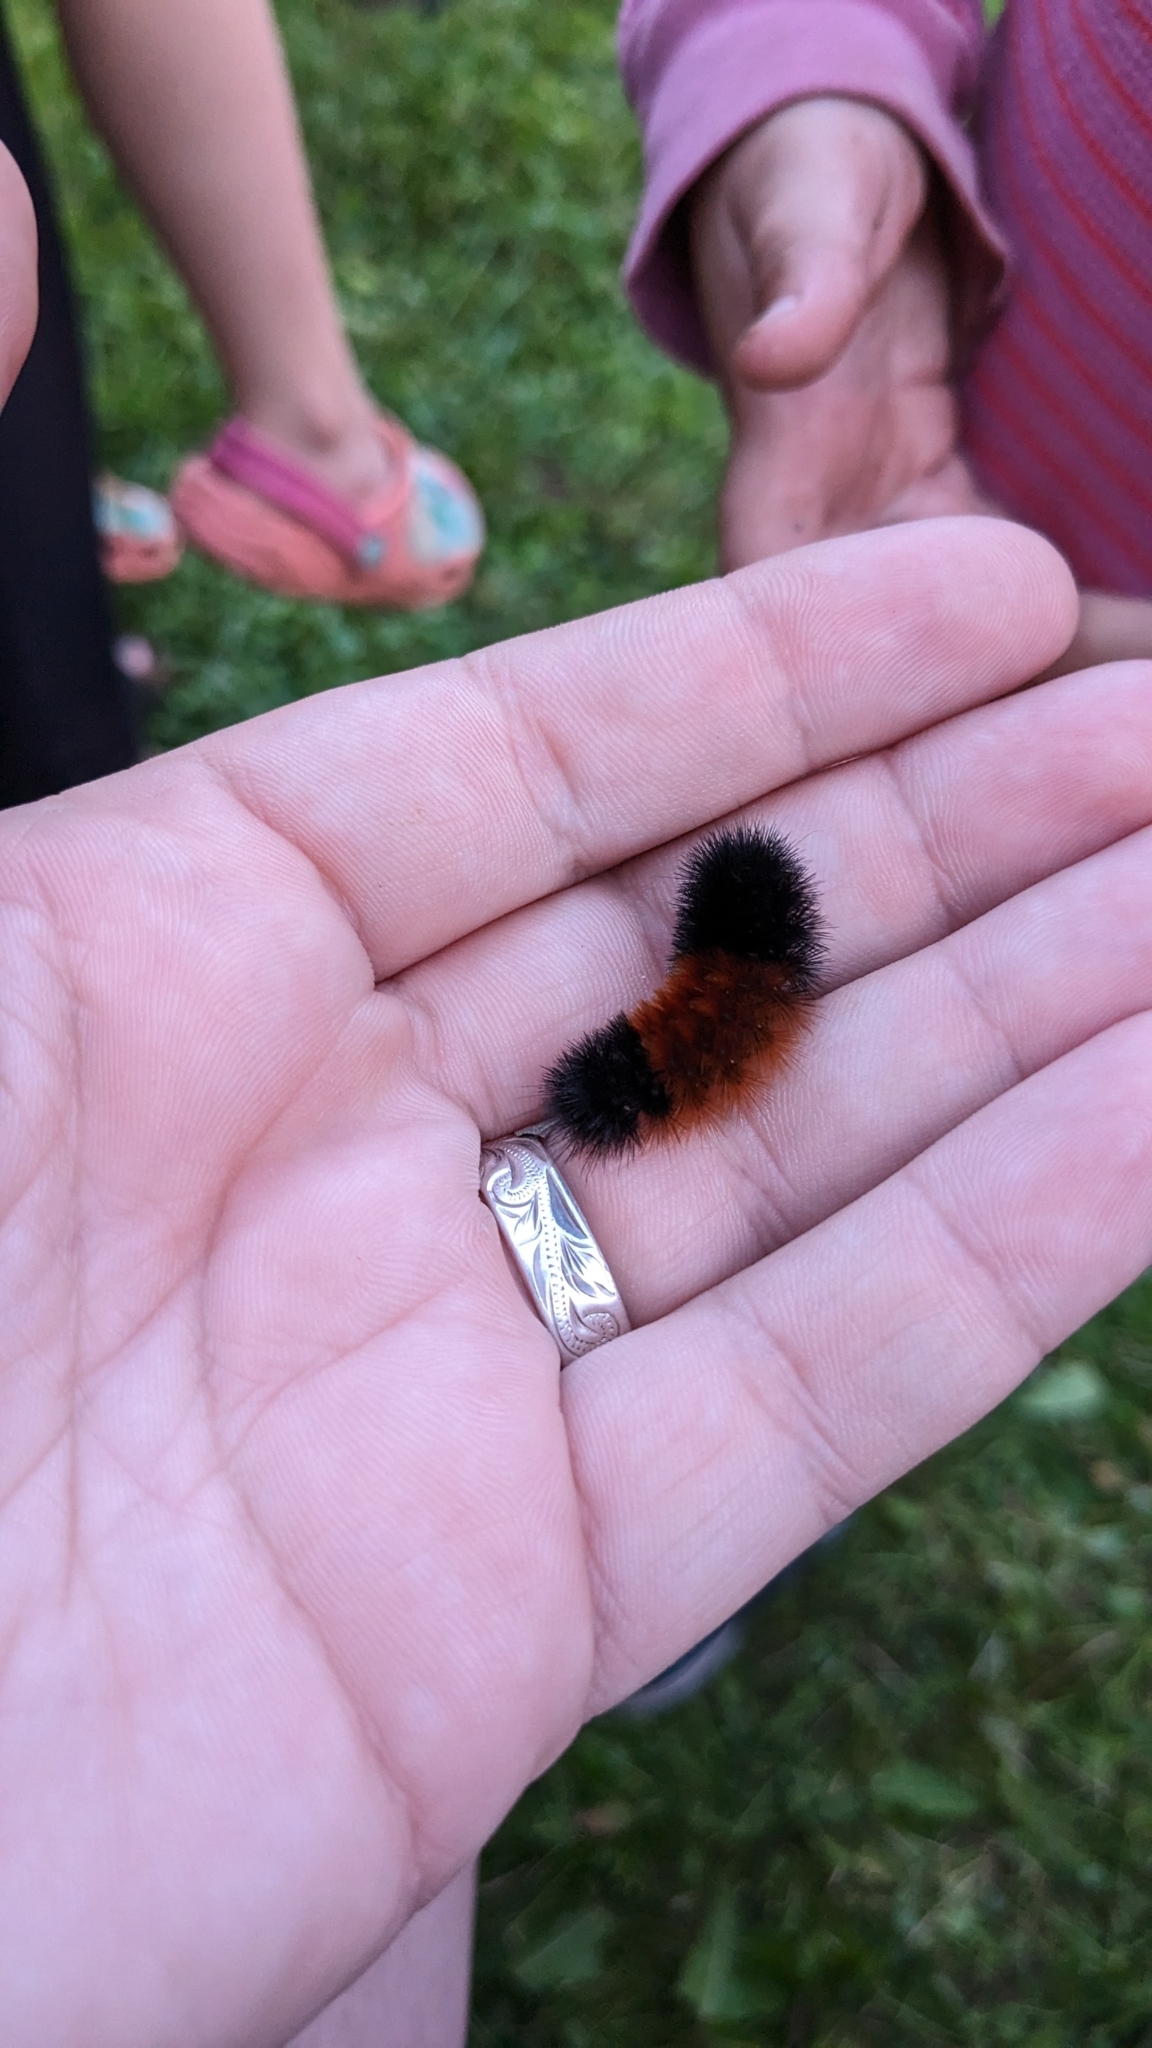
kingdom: Animalia
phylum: Arthropoda
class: Insecta
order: Lepidoptera
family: Erebidae
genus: Pyrrharctia
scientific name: Pyrrharctia isabella
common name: Isabella tiger moth
